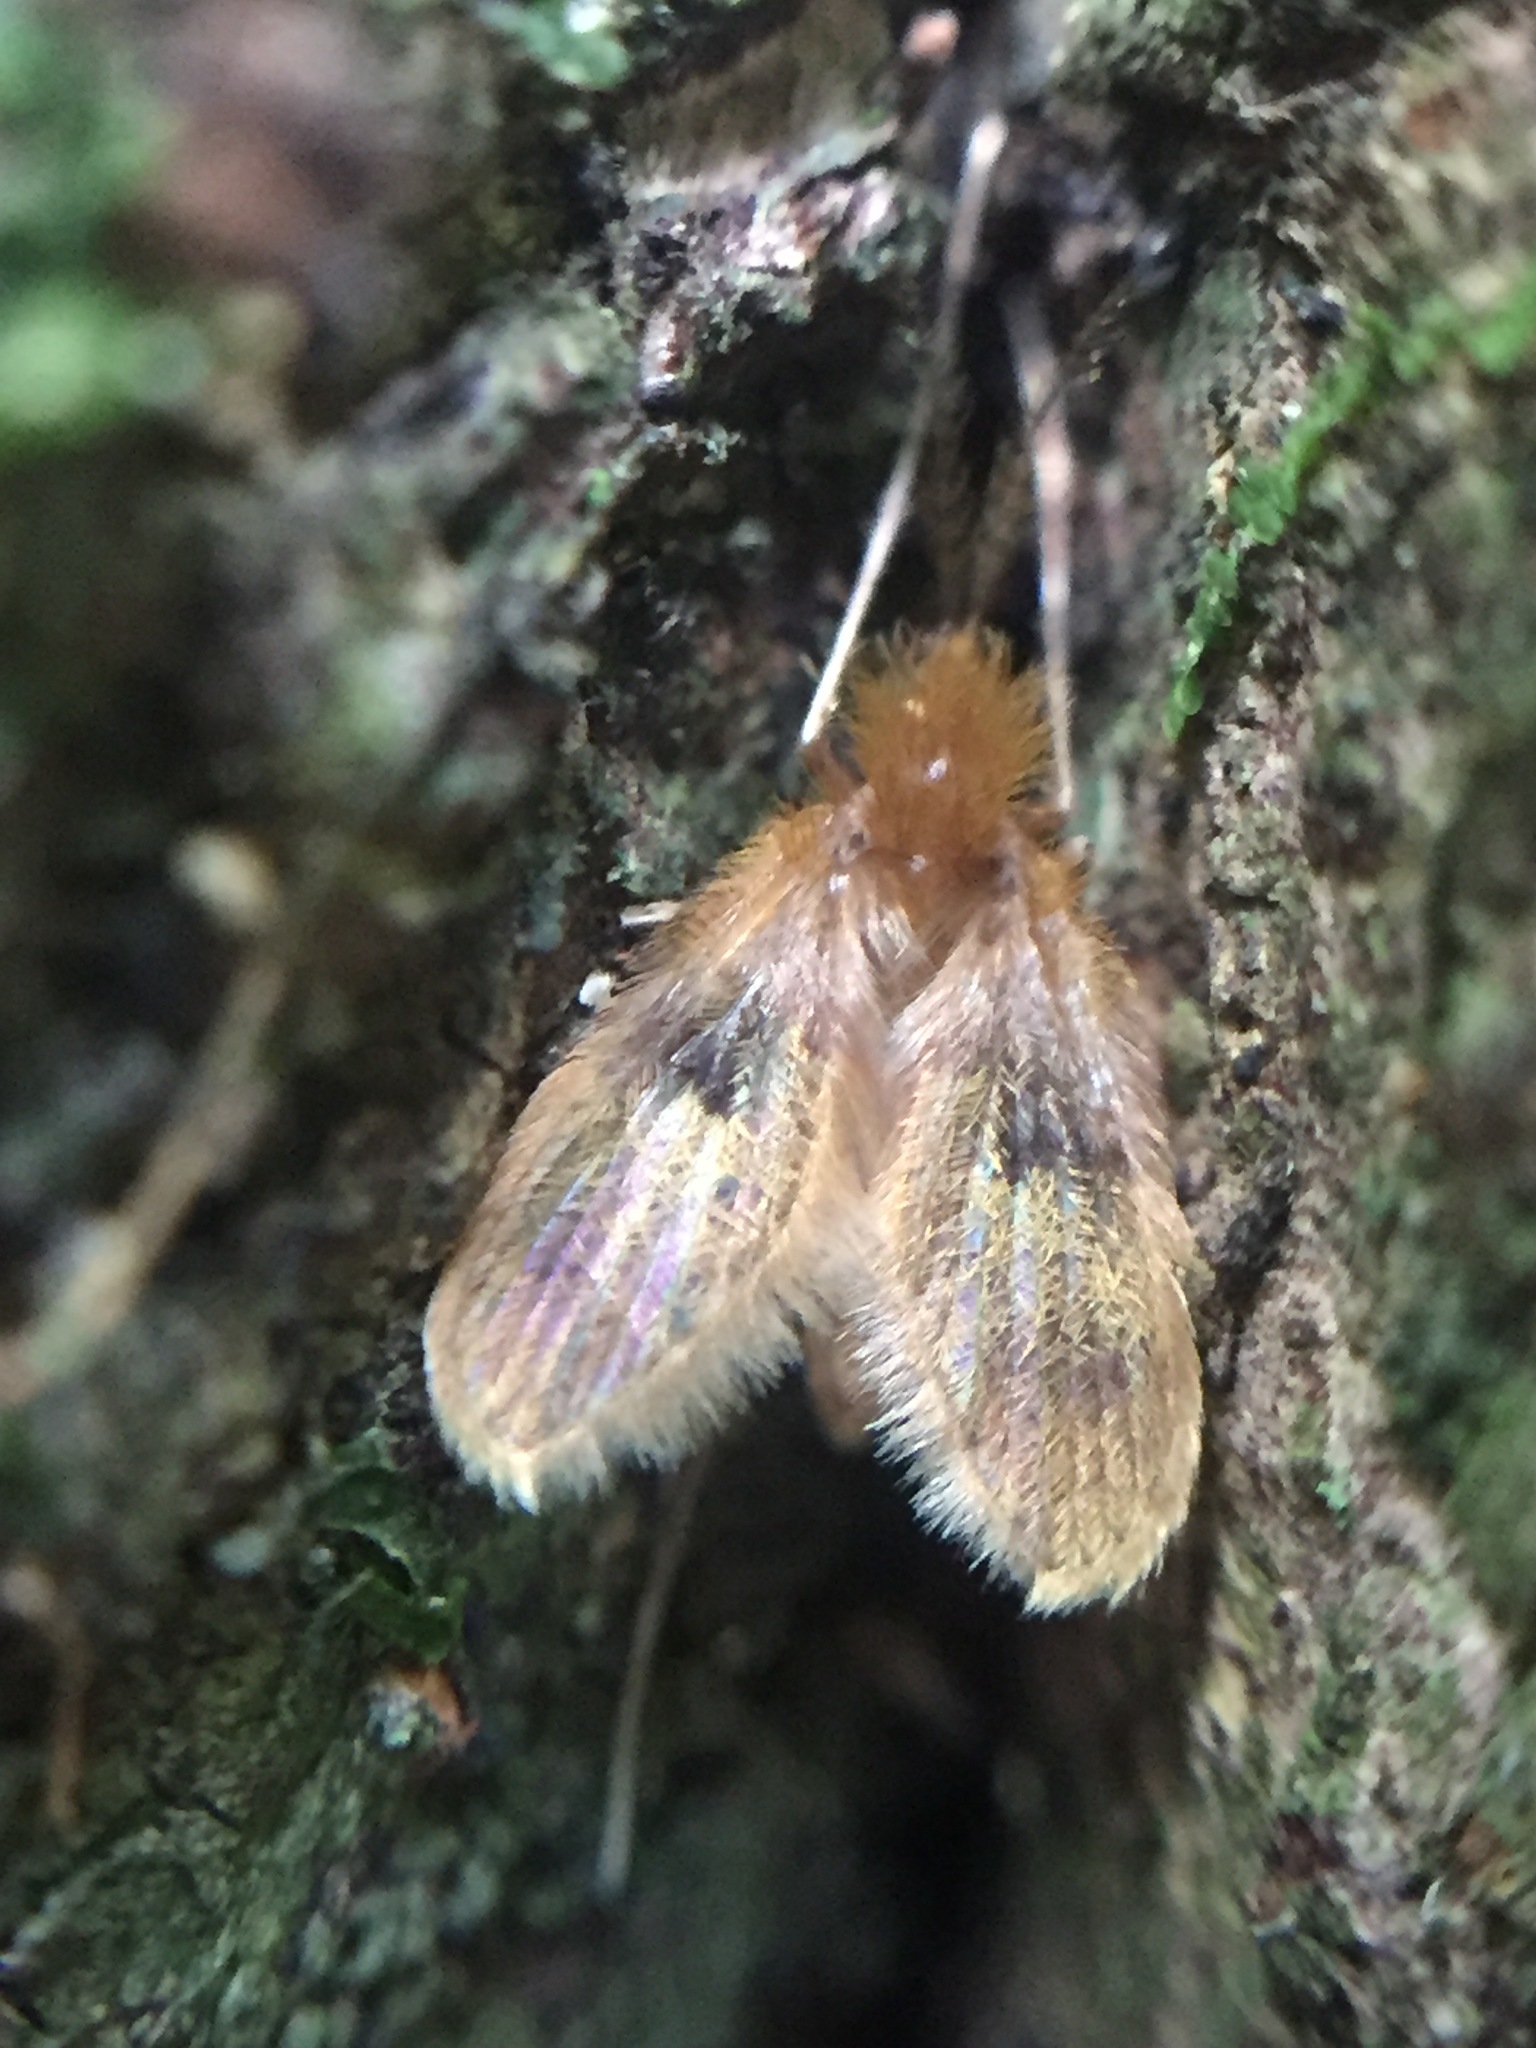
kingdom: Animalia
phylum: Arthropoda
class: Insecta
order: Diptera
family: Psychodidae
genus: Notofairchildia
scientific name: Notofairchildia zelandiae
